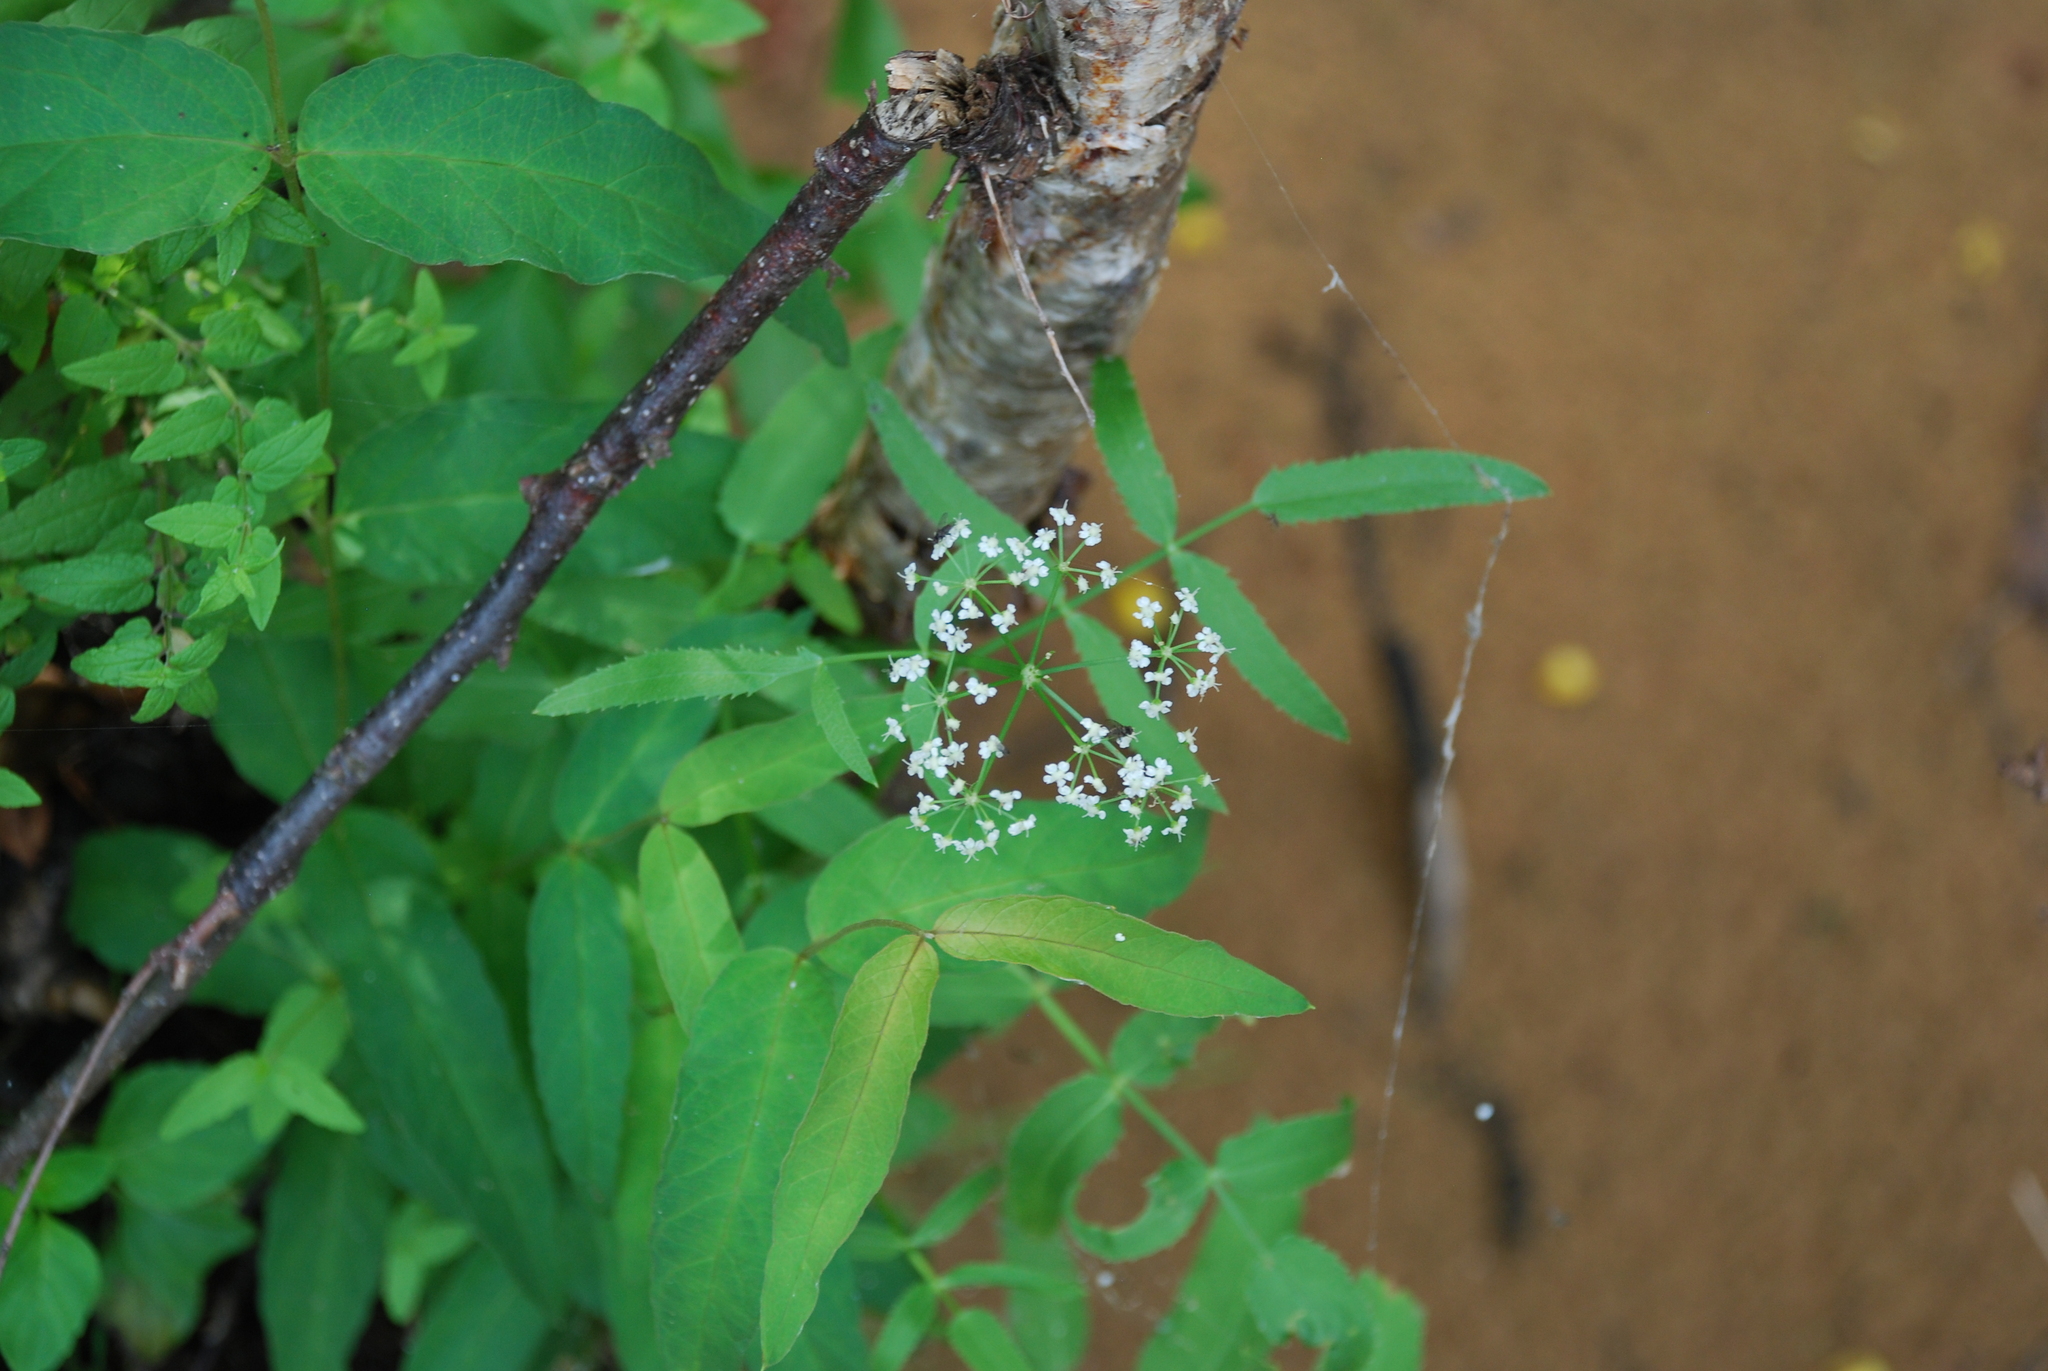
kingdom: Plantae
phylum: Tracheophyta
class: Magnoliopsida
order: Apiales
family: Apiaceae
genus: Sium
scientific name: Sium latifolium
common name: Greater water-parsnip
